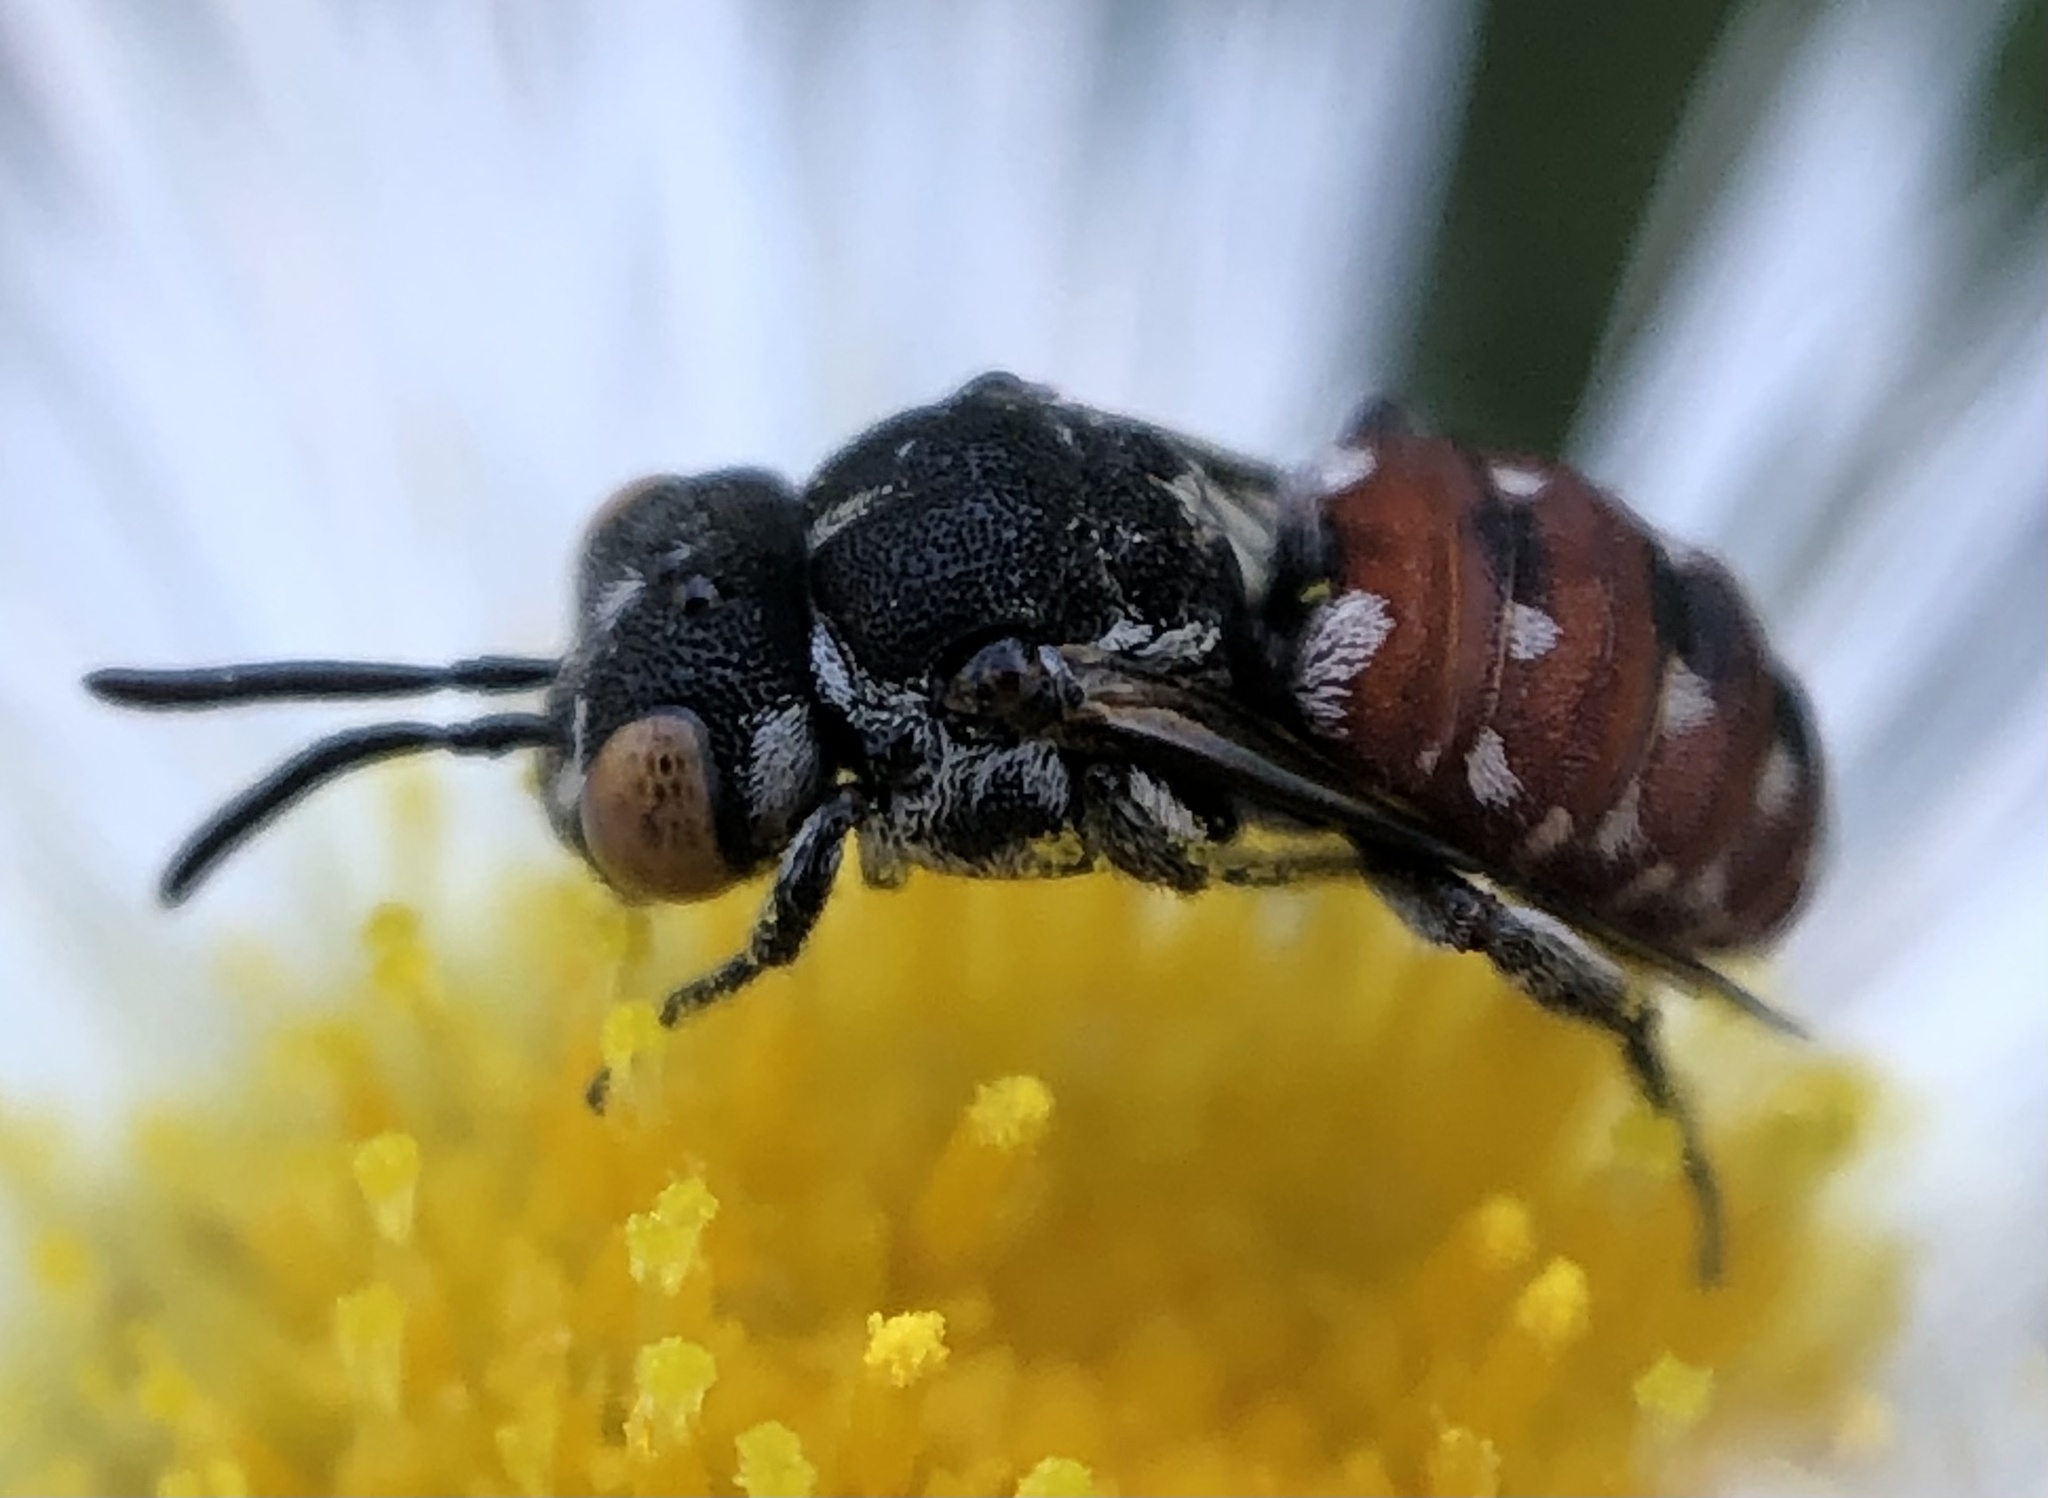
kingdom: Animalia
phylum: Arthropoda
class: Insecta
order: Hymenoptera
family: Apidae
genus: Holcopasites
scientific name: Holcopasites calliopsidis
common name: Calliopsis cuckoo nomad bee
